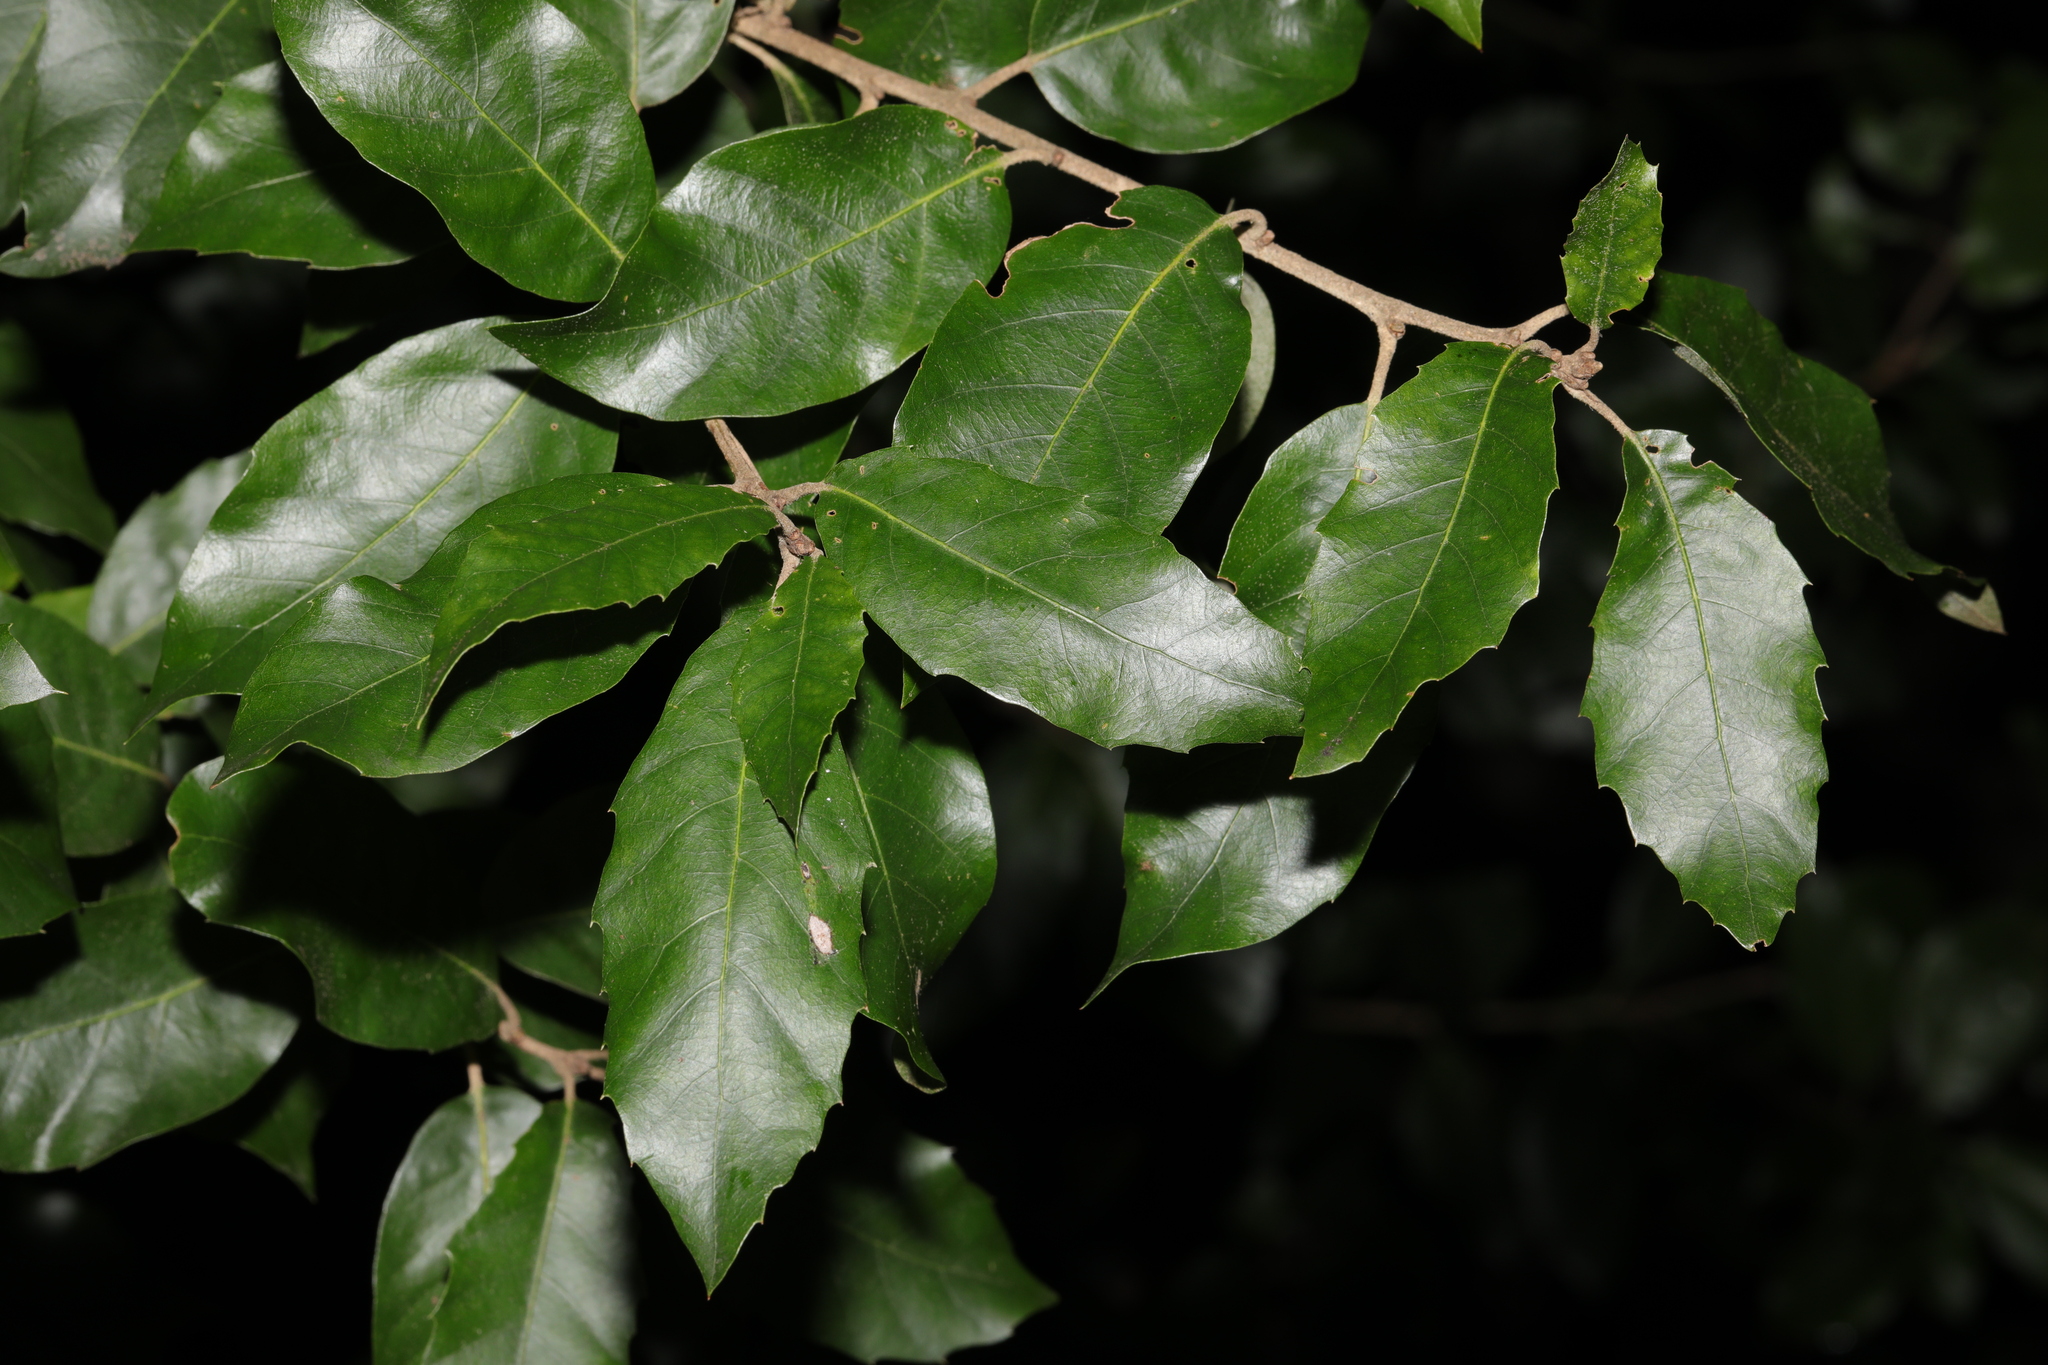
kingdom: Plantae
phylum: Tracheophyta
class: Magnoliopsida
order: Fagales
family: Fagaceae
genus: Quercus
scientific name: Quercus ilex
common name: Evergreen oak
